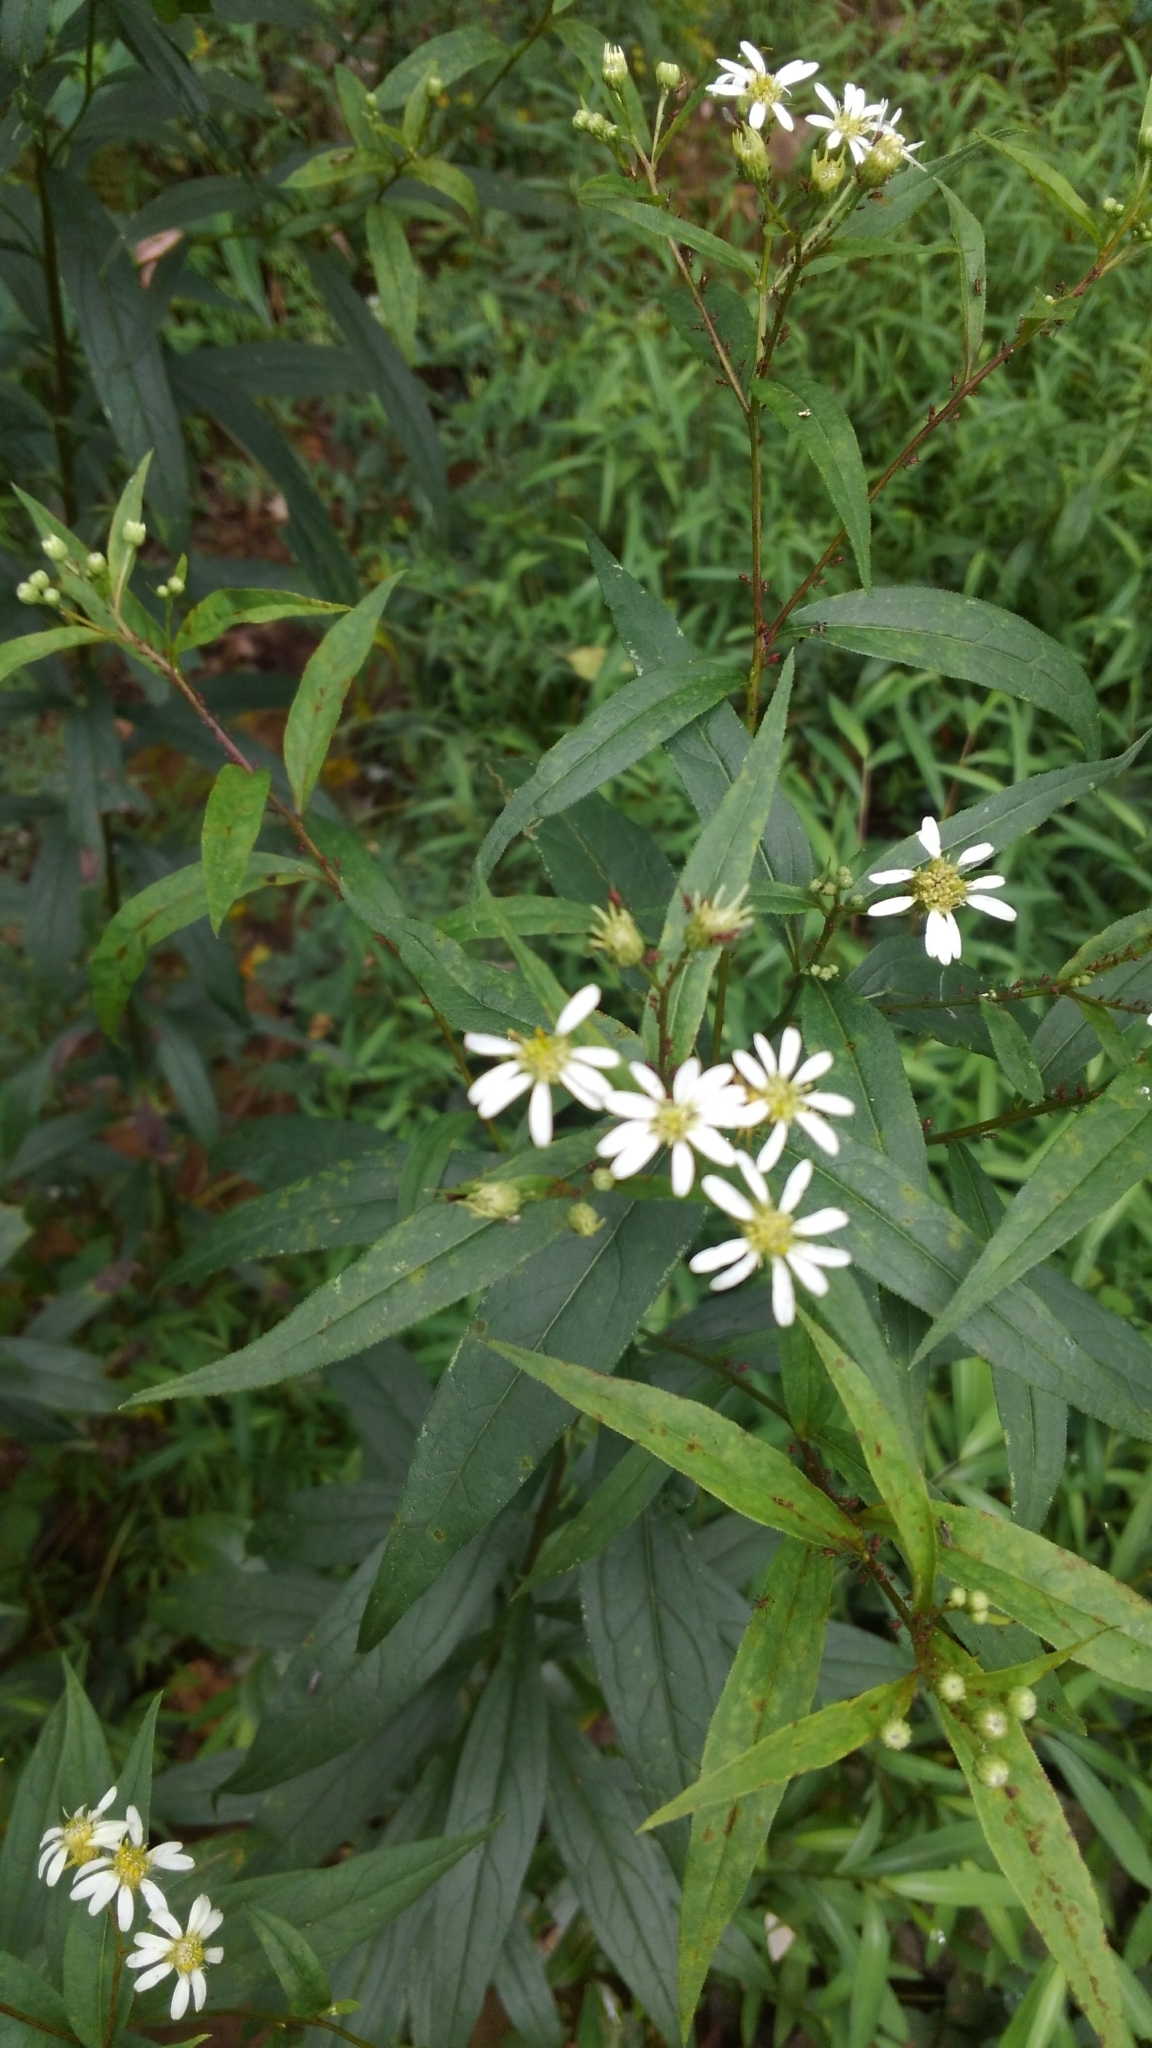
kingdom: Plantae
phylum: Tracheophyta
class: Magnoliopsida
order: Asterales
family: Asteraceae
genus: Doellingeria
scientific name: Doellingeria umbellata
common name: Flat-top white aster
